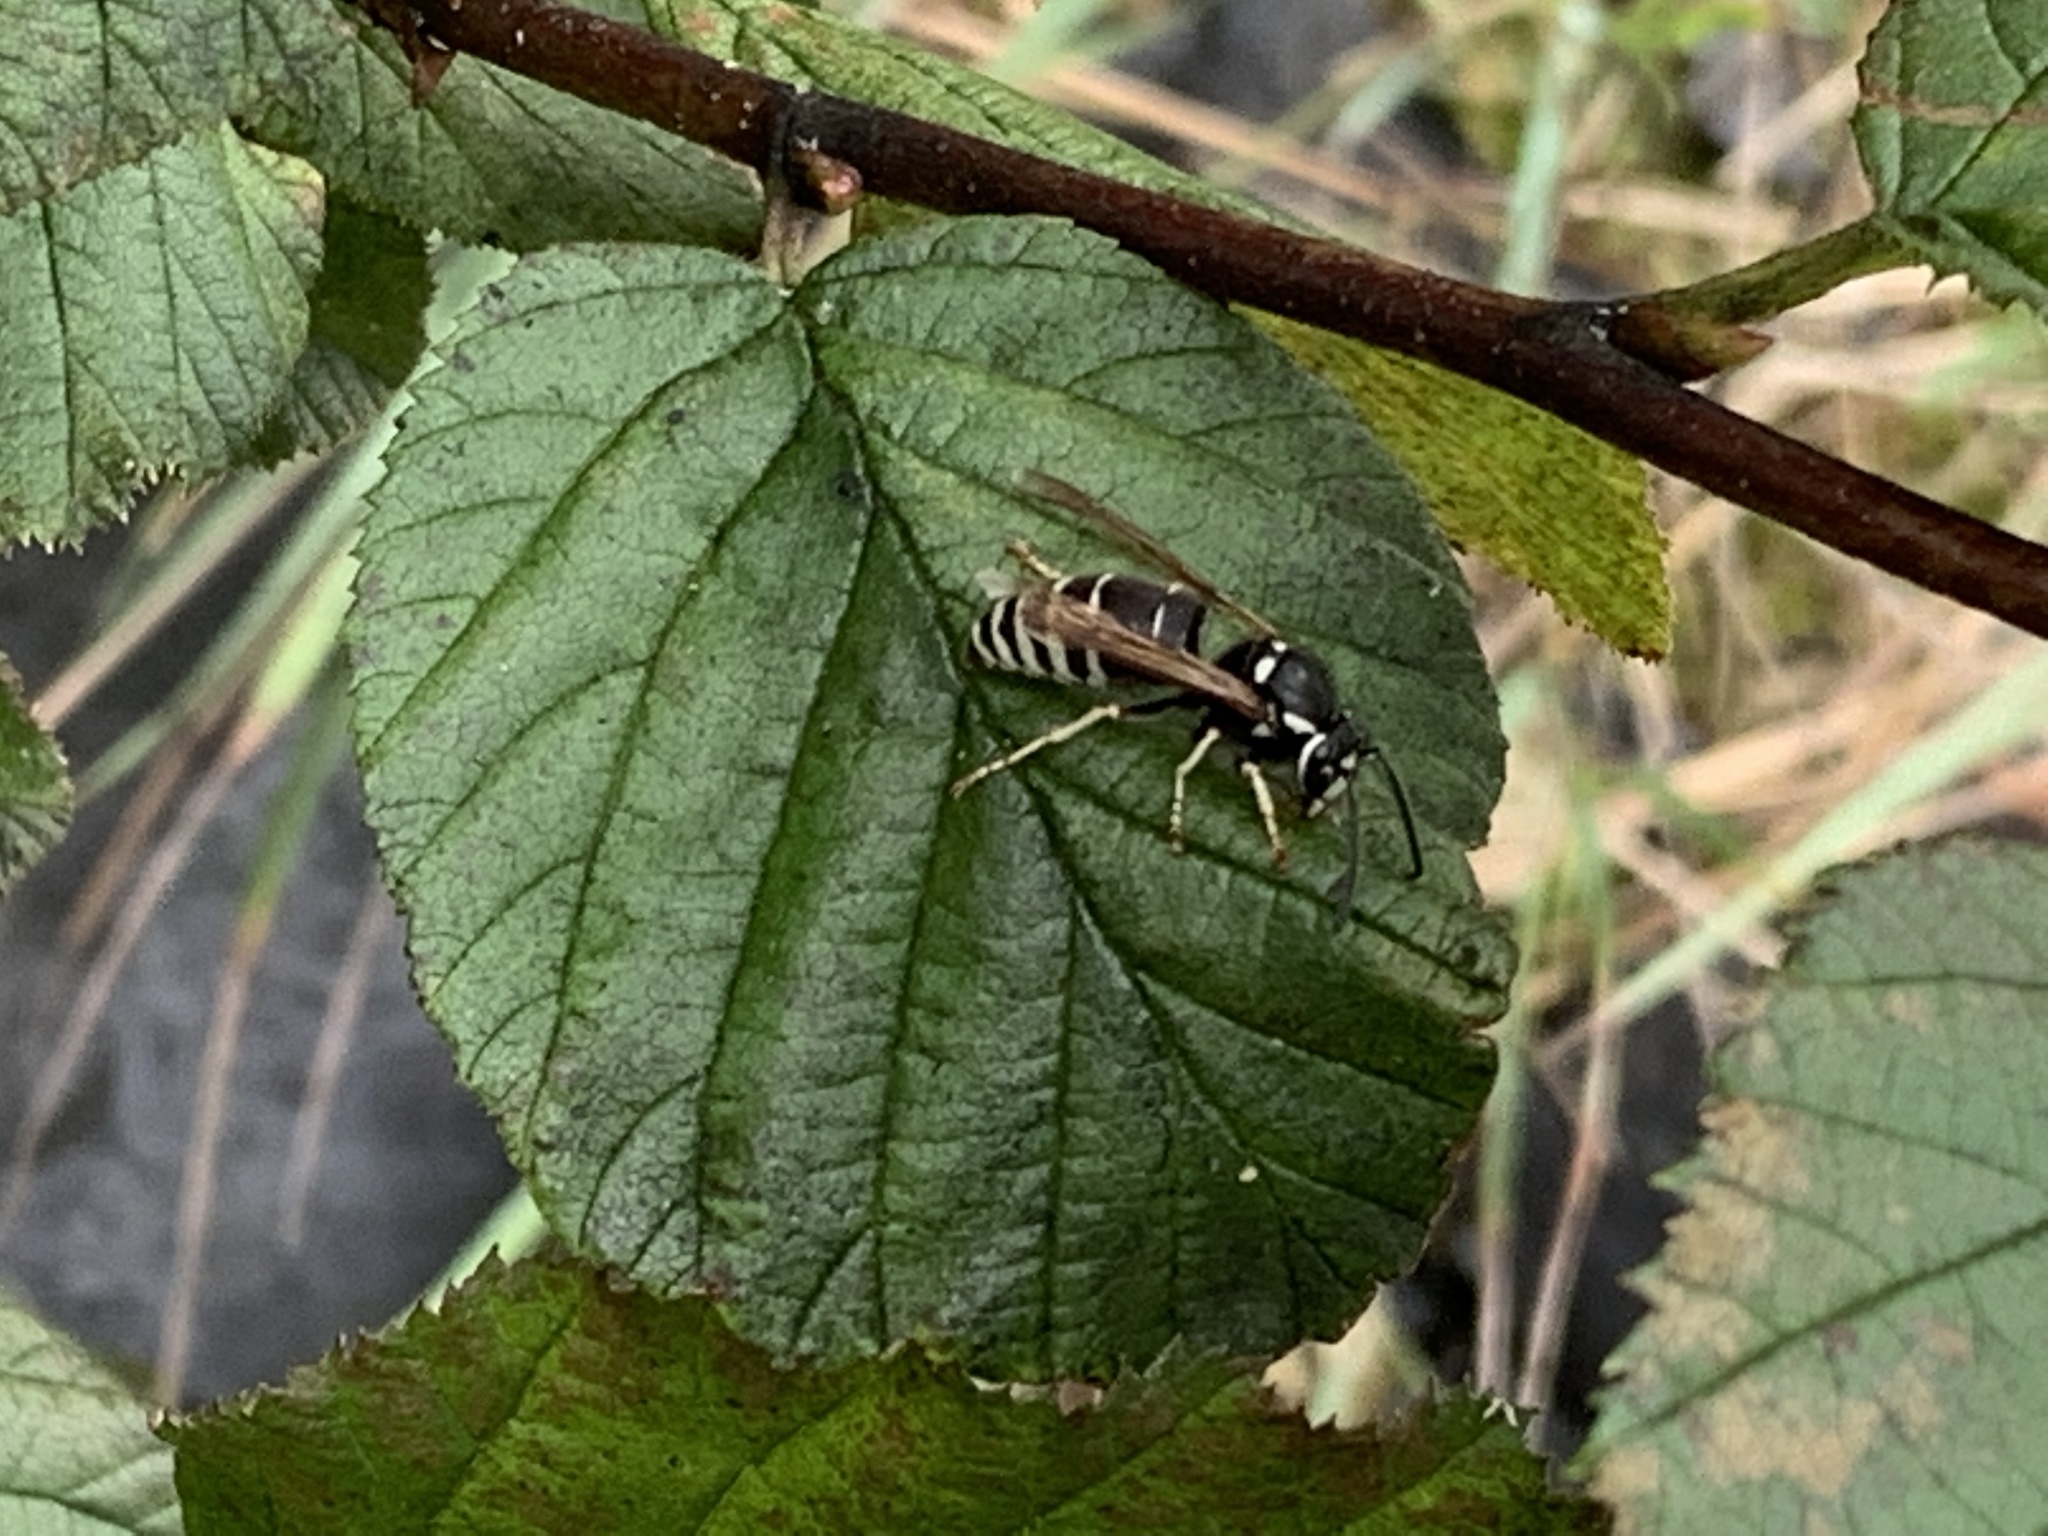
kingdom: Animalia
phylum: Arthropoda
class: Insecta
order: Hymenoptera
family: Vespidae
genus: Vespula
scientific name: Vespula consobrina
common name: Blackjacket
